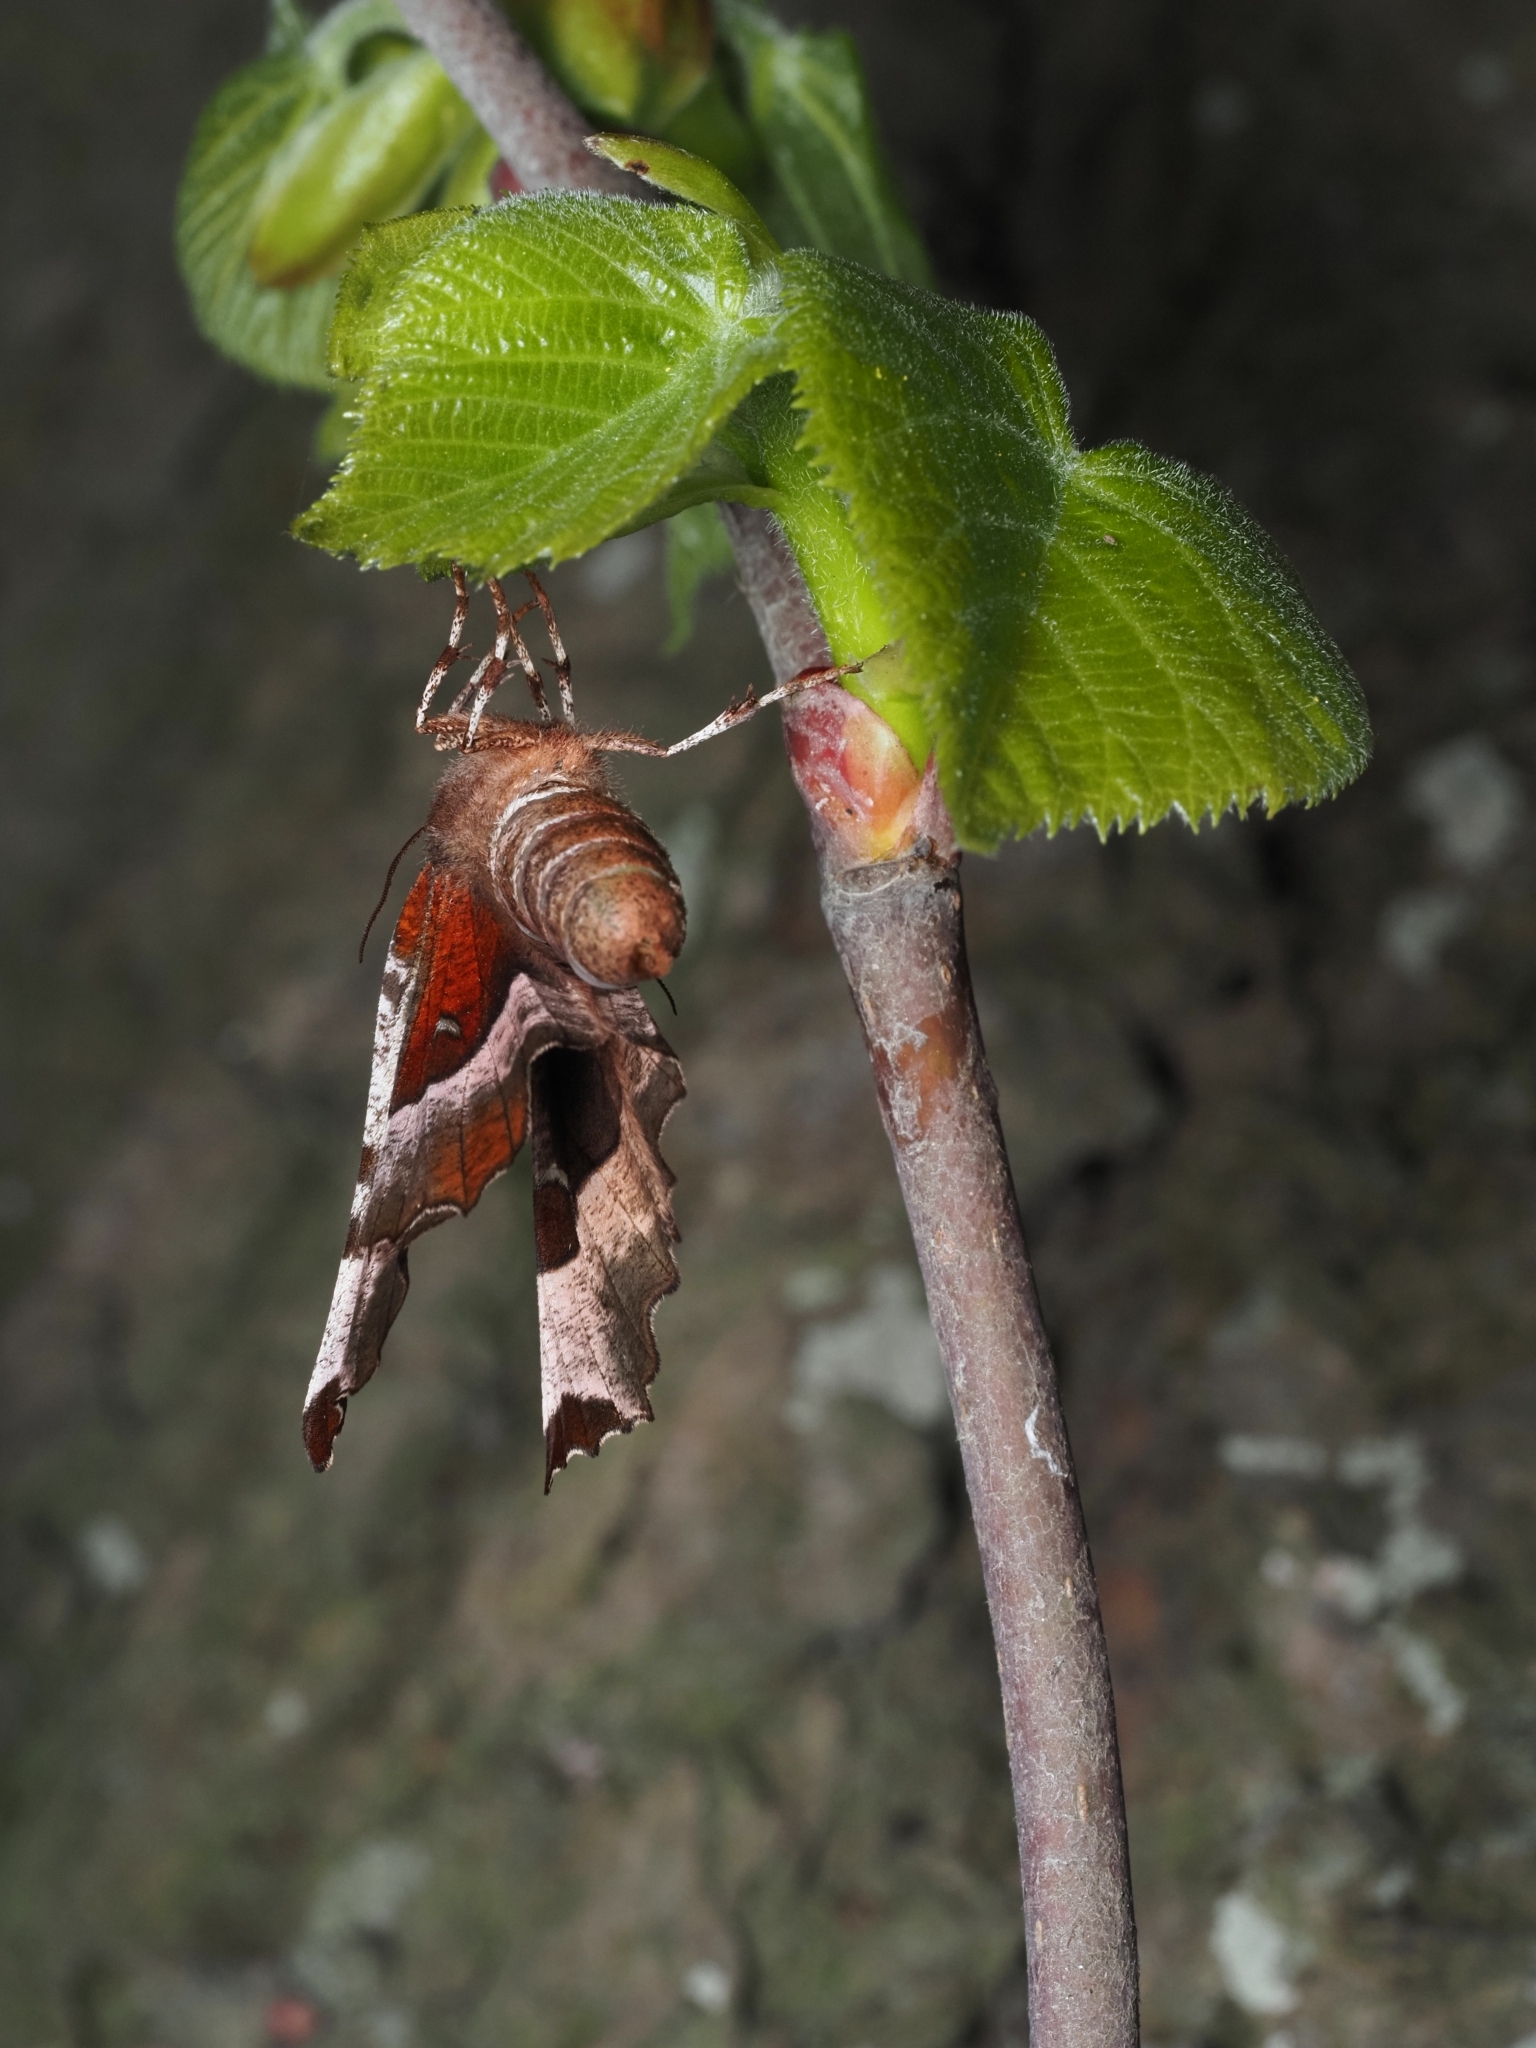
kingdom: Animalia
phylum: Arthropoda
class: Insecta
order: Lepidoptera
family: Geometridae
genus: Selenia
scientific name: Selenia tetralunaria
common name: Purple thorn
